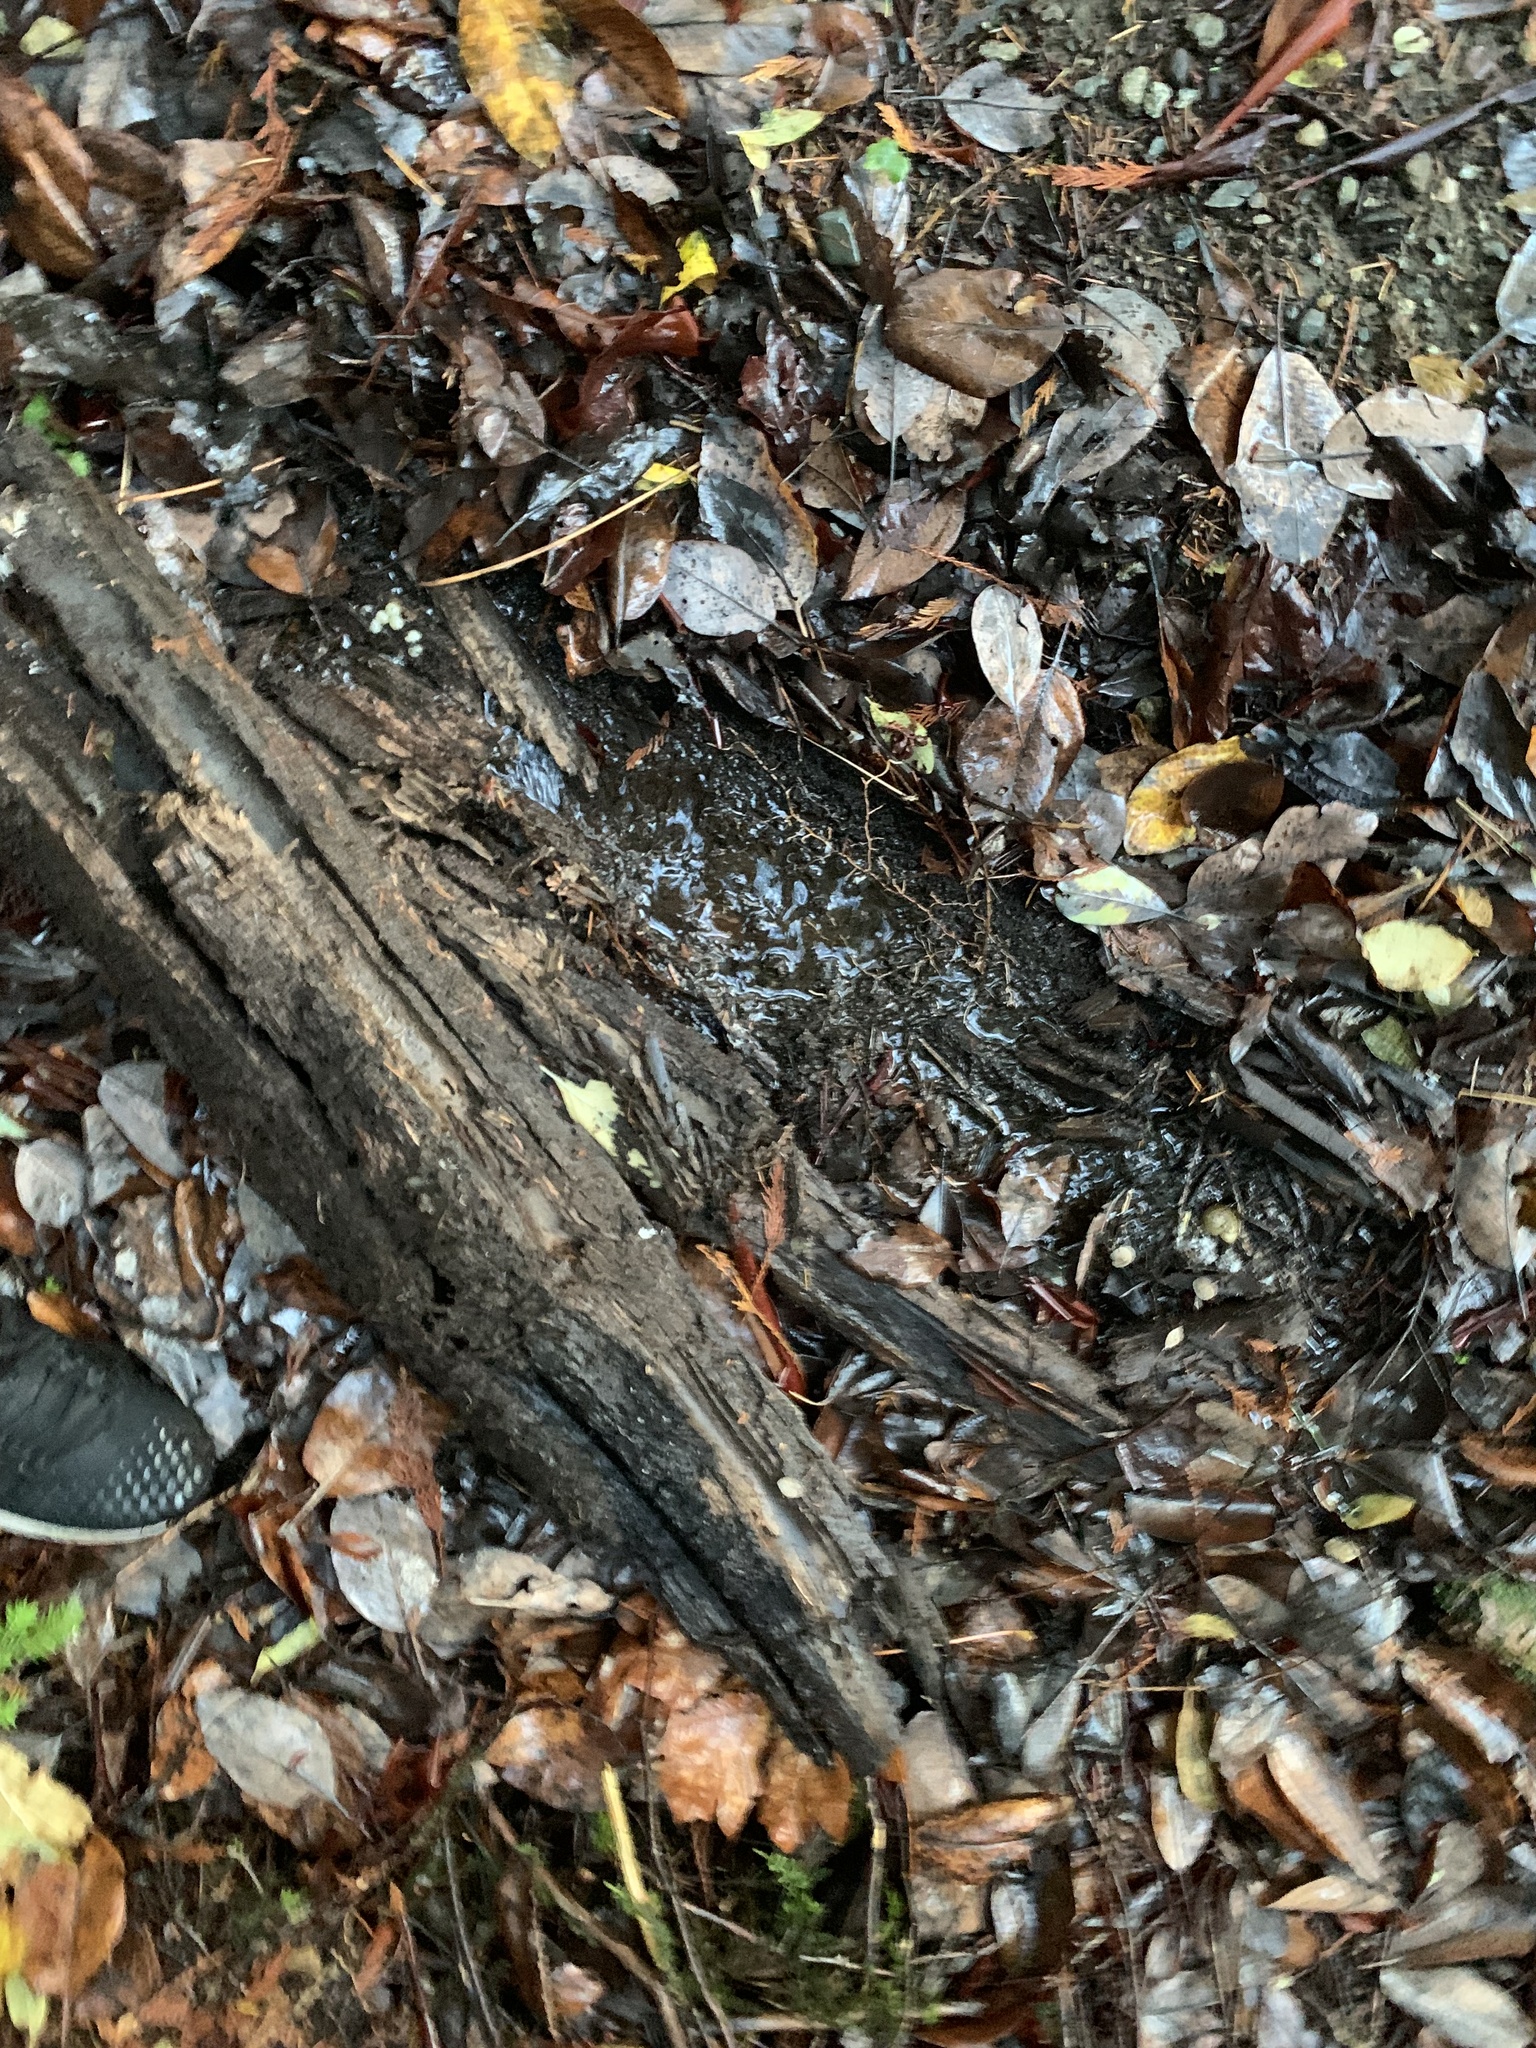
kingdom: Animalia
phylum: Mollusca
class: Gastropoda
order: Stylommatophora
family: Ariolimacidae
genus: Ariolimax
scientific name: Ariolimax columbianus
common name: Pacific banana slug
